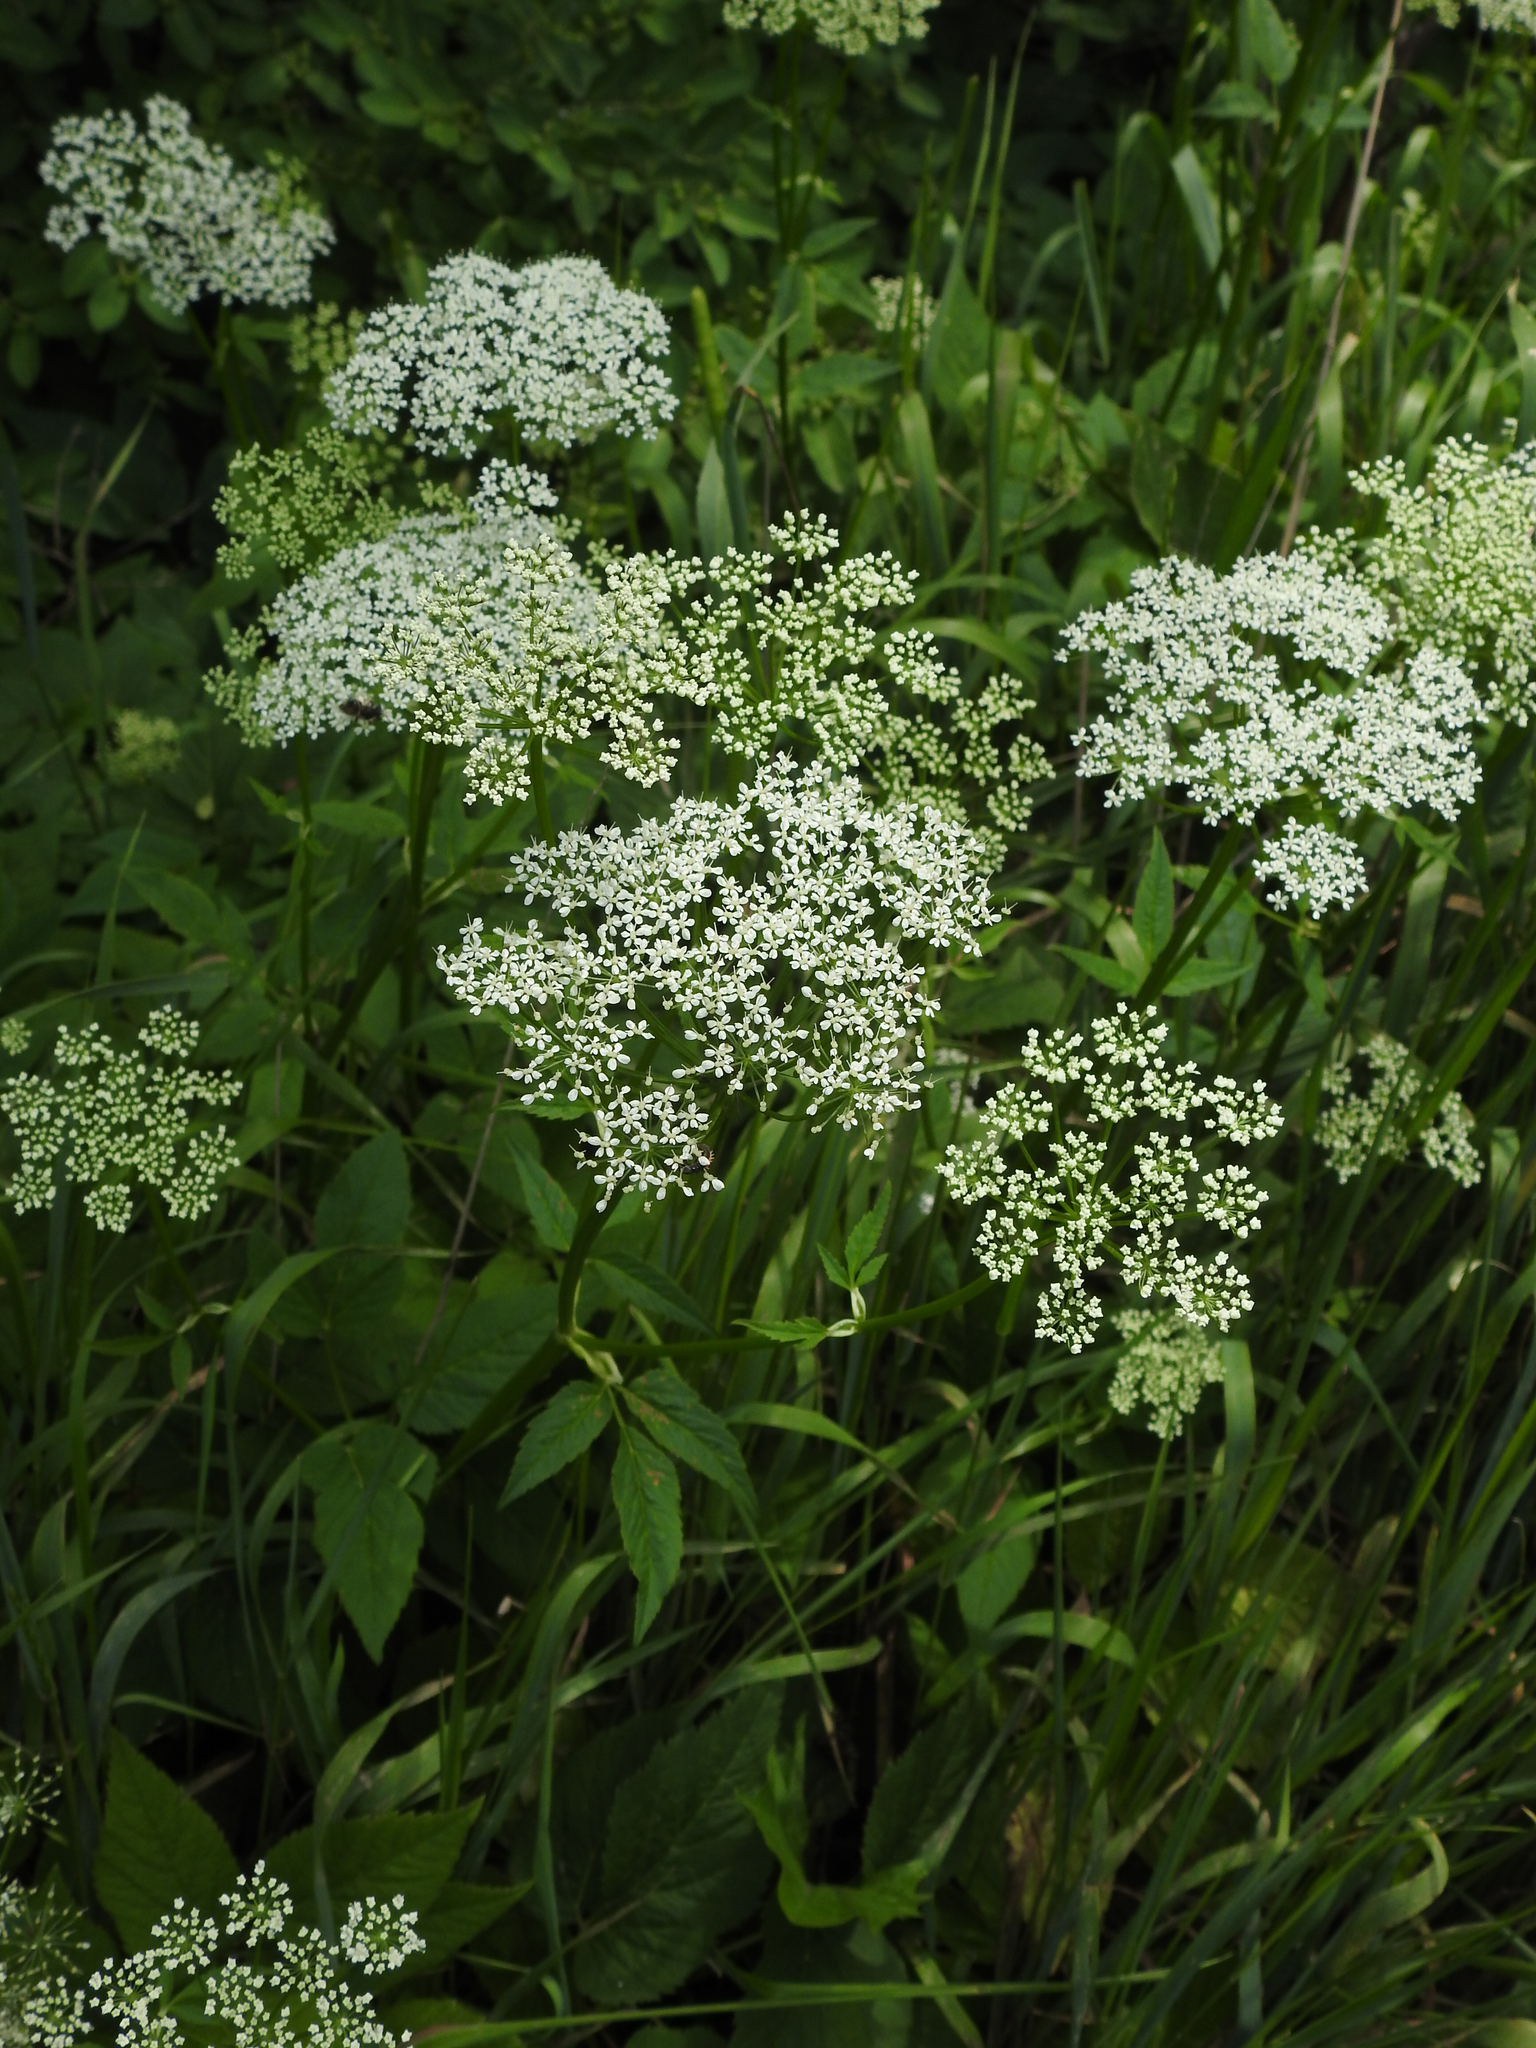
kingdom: Plantae
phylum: Tracheophyta
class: Magnoliopsida
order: Apiales
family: Apiaceae
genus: Aegopodium
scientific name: Aegopodium podagraria
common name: Ground-elder
